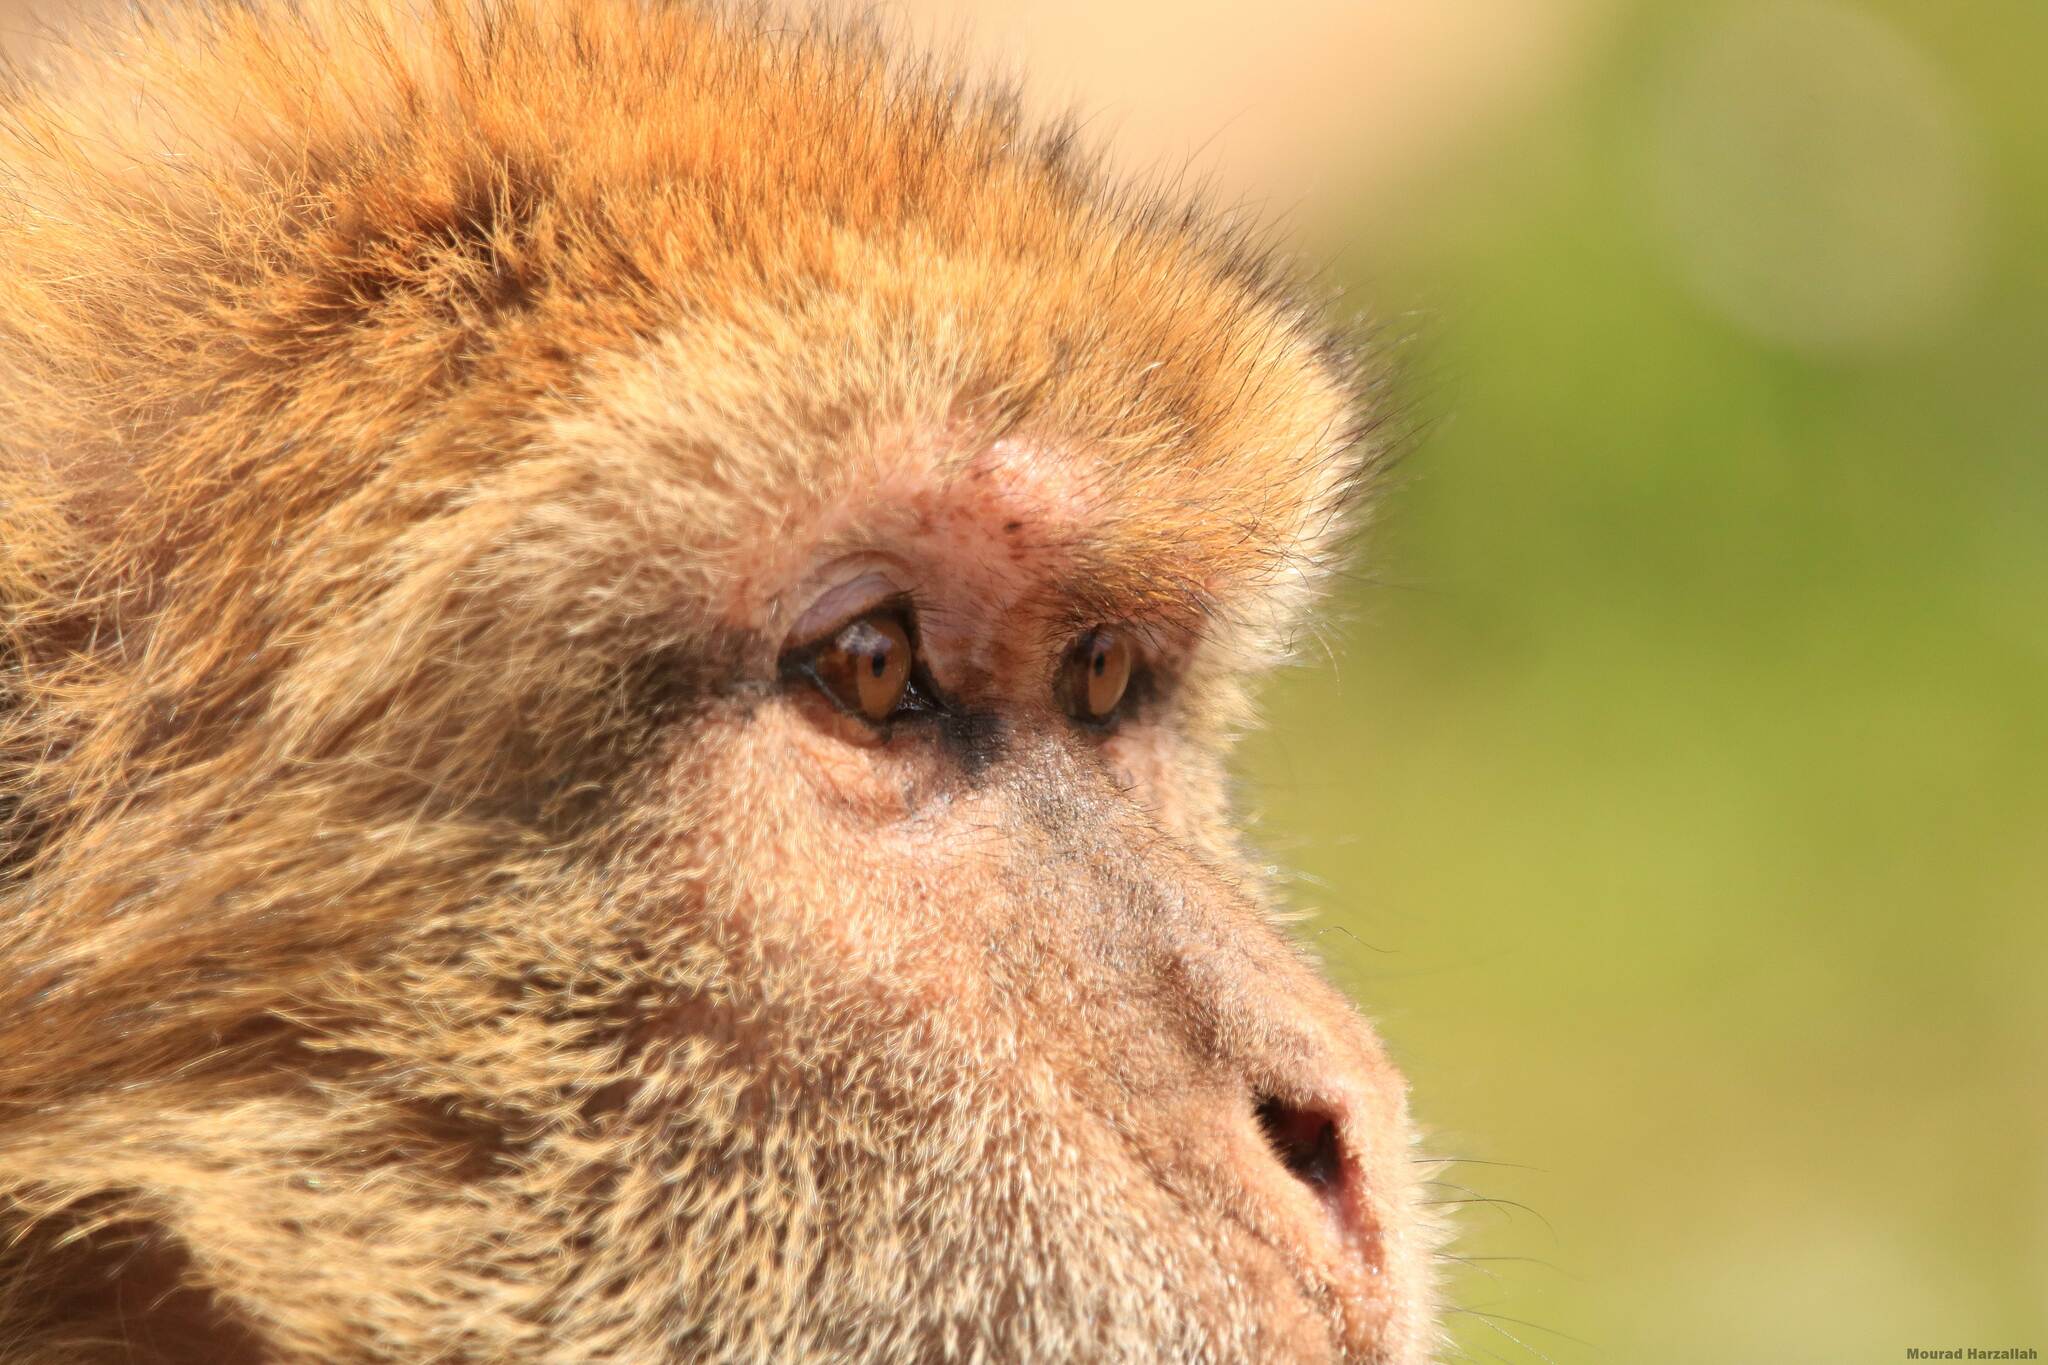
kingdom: Animalia
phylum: Chordata
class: Mammalia
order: Primates
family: Cercopithecidae
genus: Macaca
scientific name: Macaca sylvanus
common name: Barbary macaque
